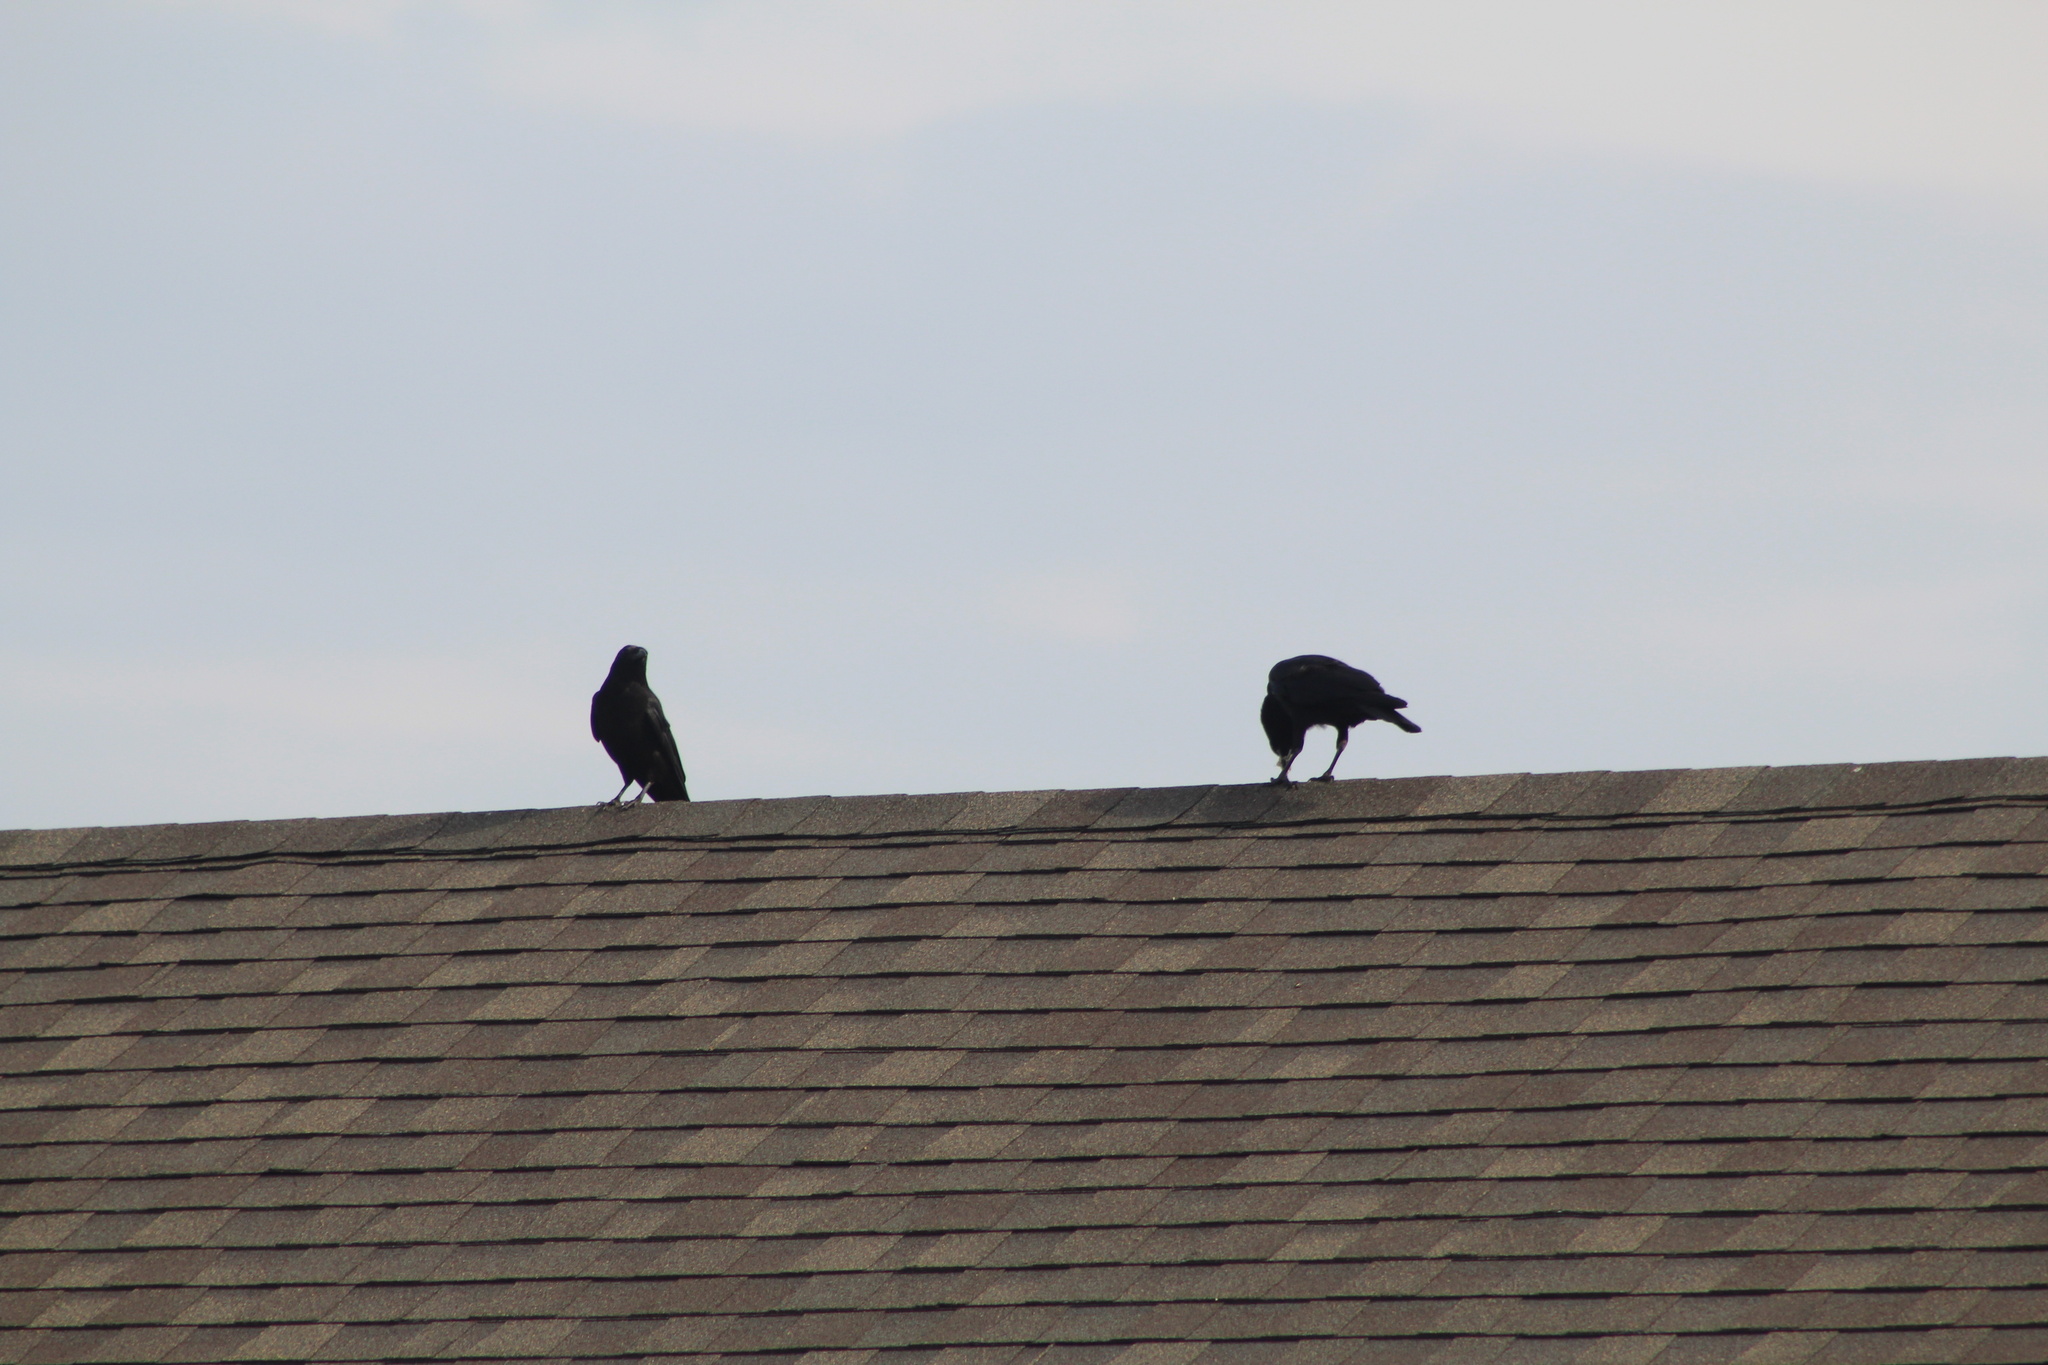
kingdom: Animalia
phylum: Chordata
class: Aves
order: Passeriformes
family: Corvidae
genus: Corvus
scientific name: Corvus brachyrhynchos
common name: American crow
